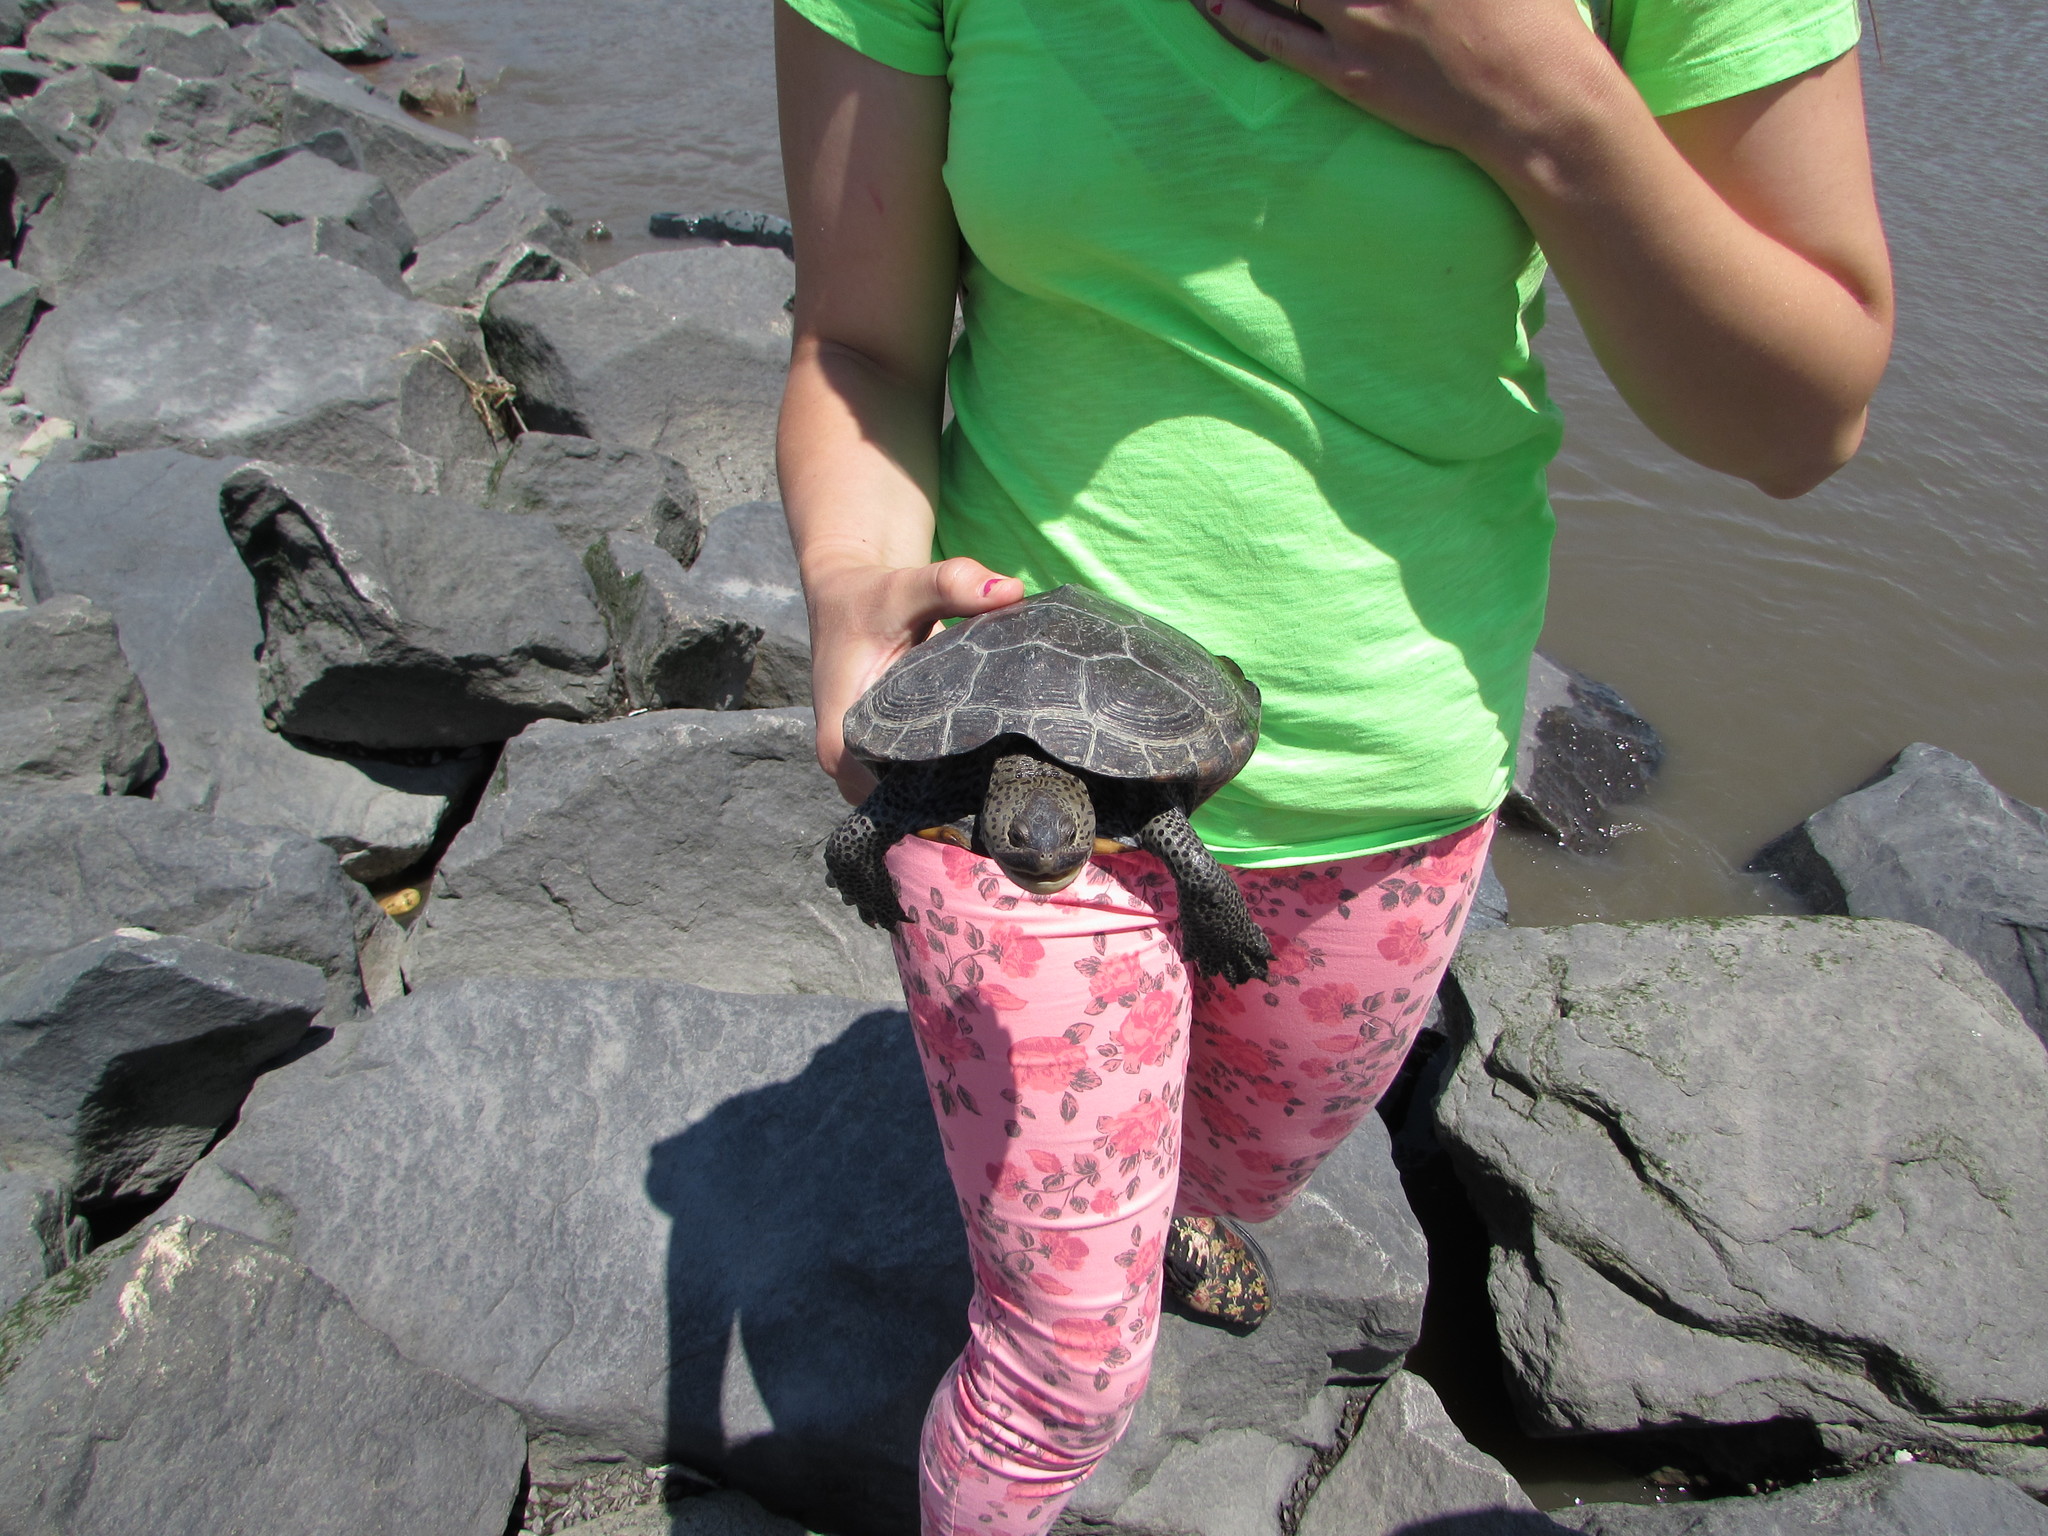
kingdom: Animalia
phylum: Chordata
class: Testudines
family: Emydidae
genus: Malaclemys
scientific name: Malaclemys terrapin
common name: Diamondback terrapin
